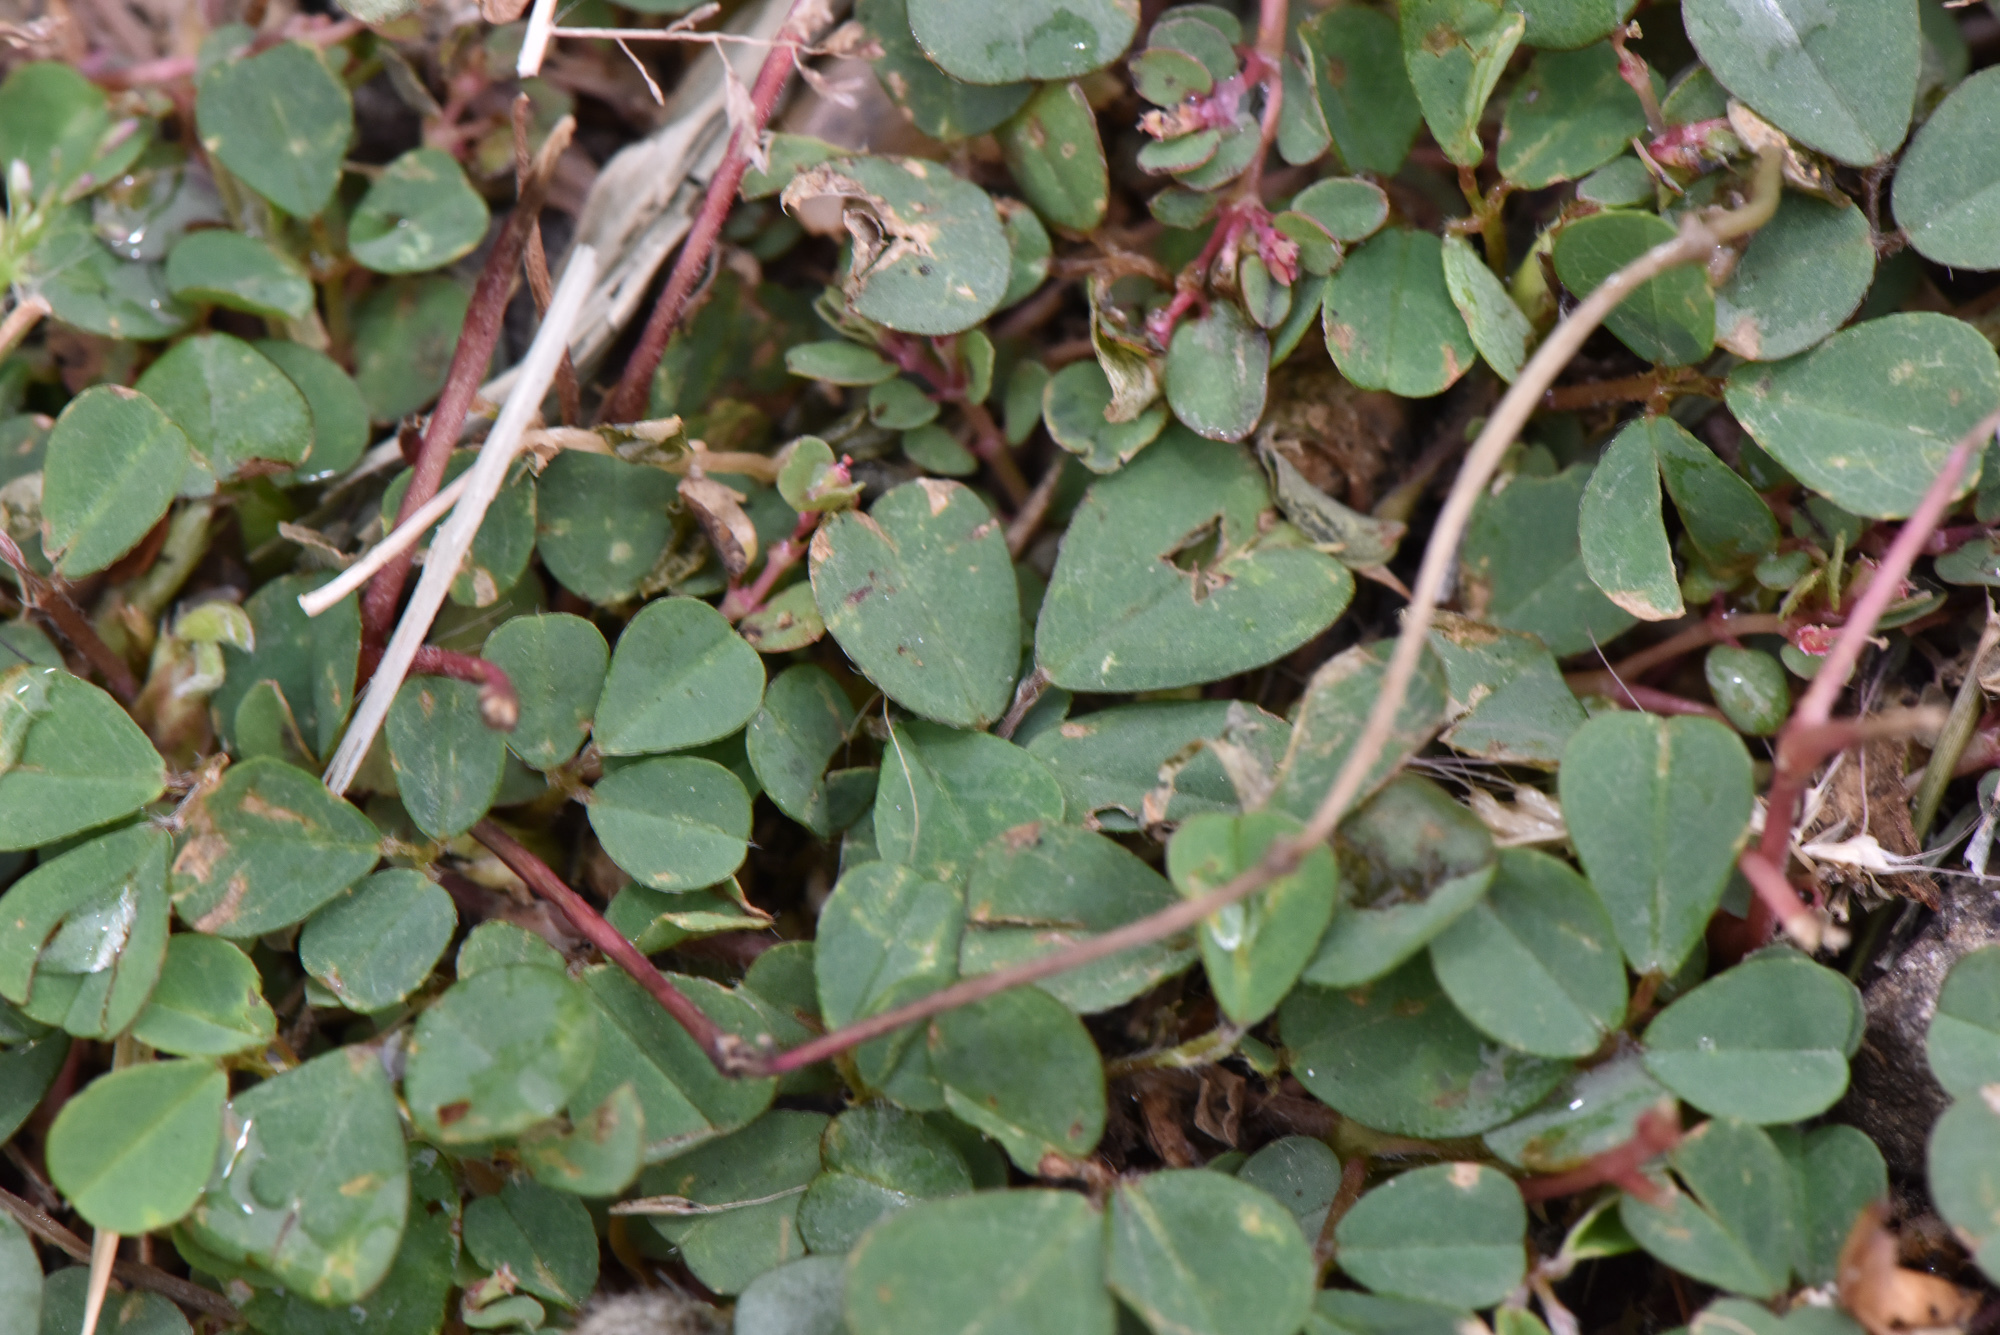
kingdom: Plantae
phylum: Tracheophyta
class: Magnoliopsida
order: Fabales
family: Fabaceae
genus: Grona
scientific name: Grona triflora
